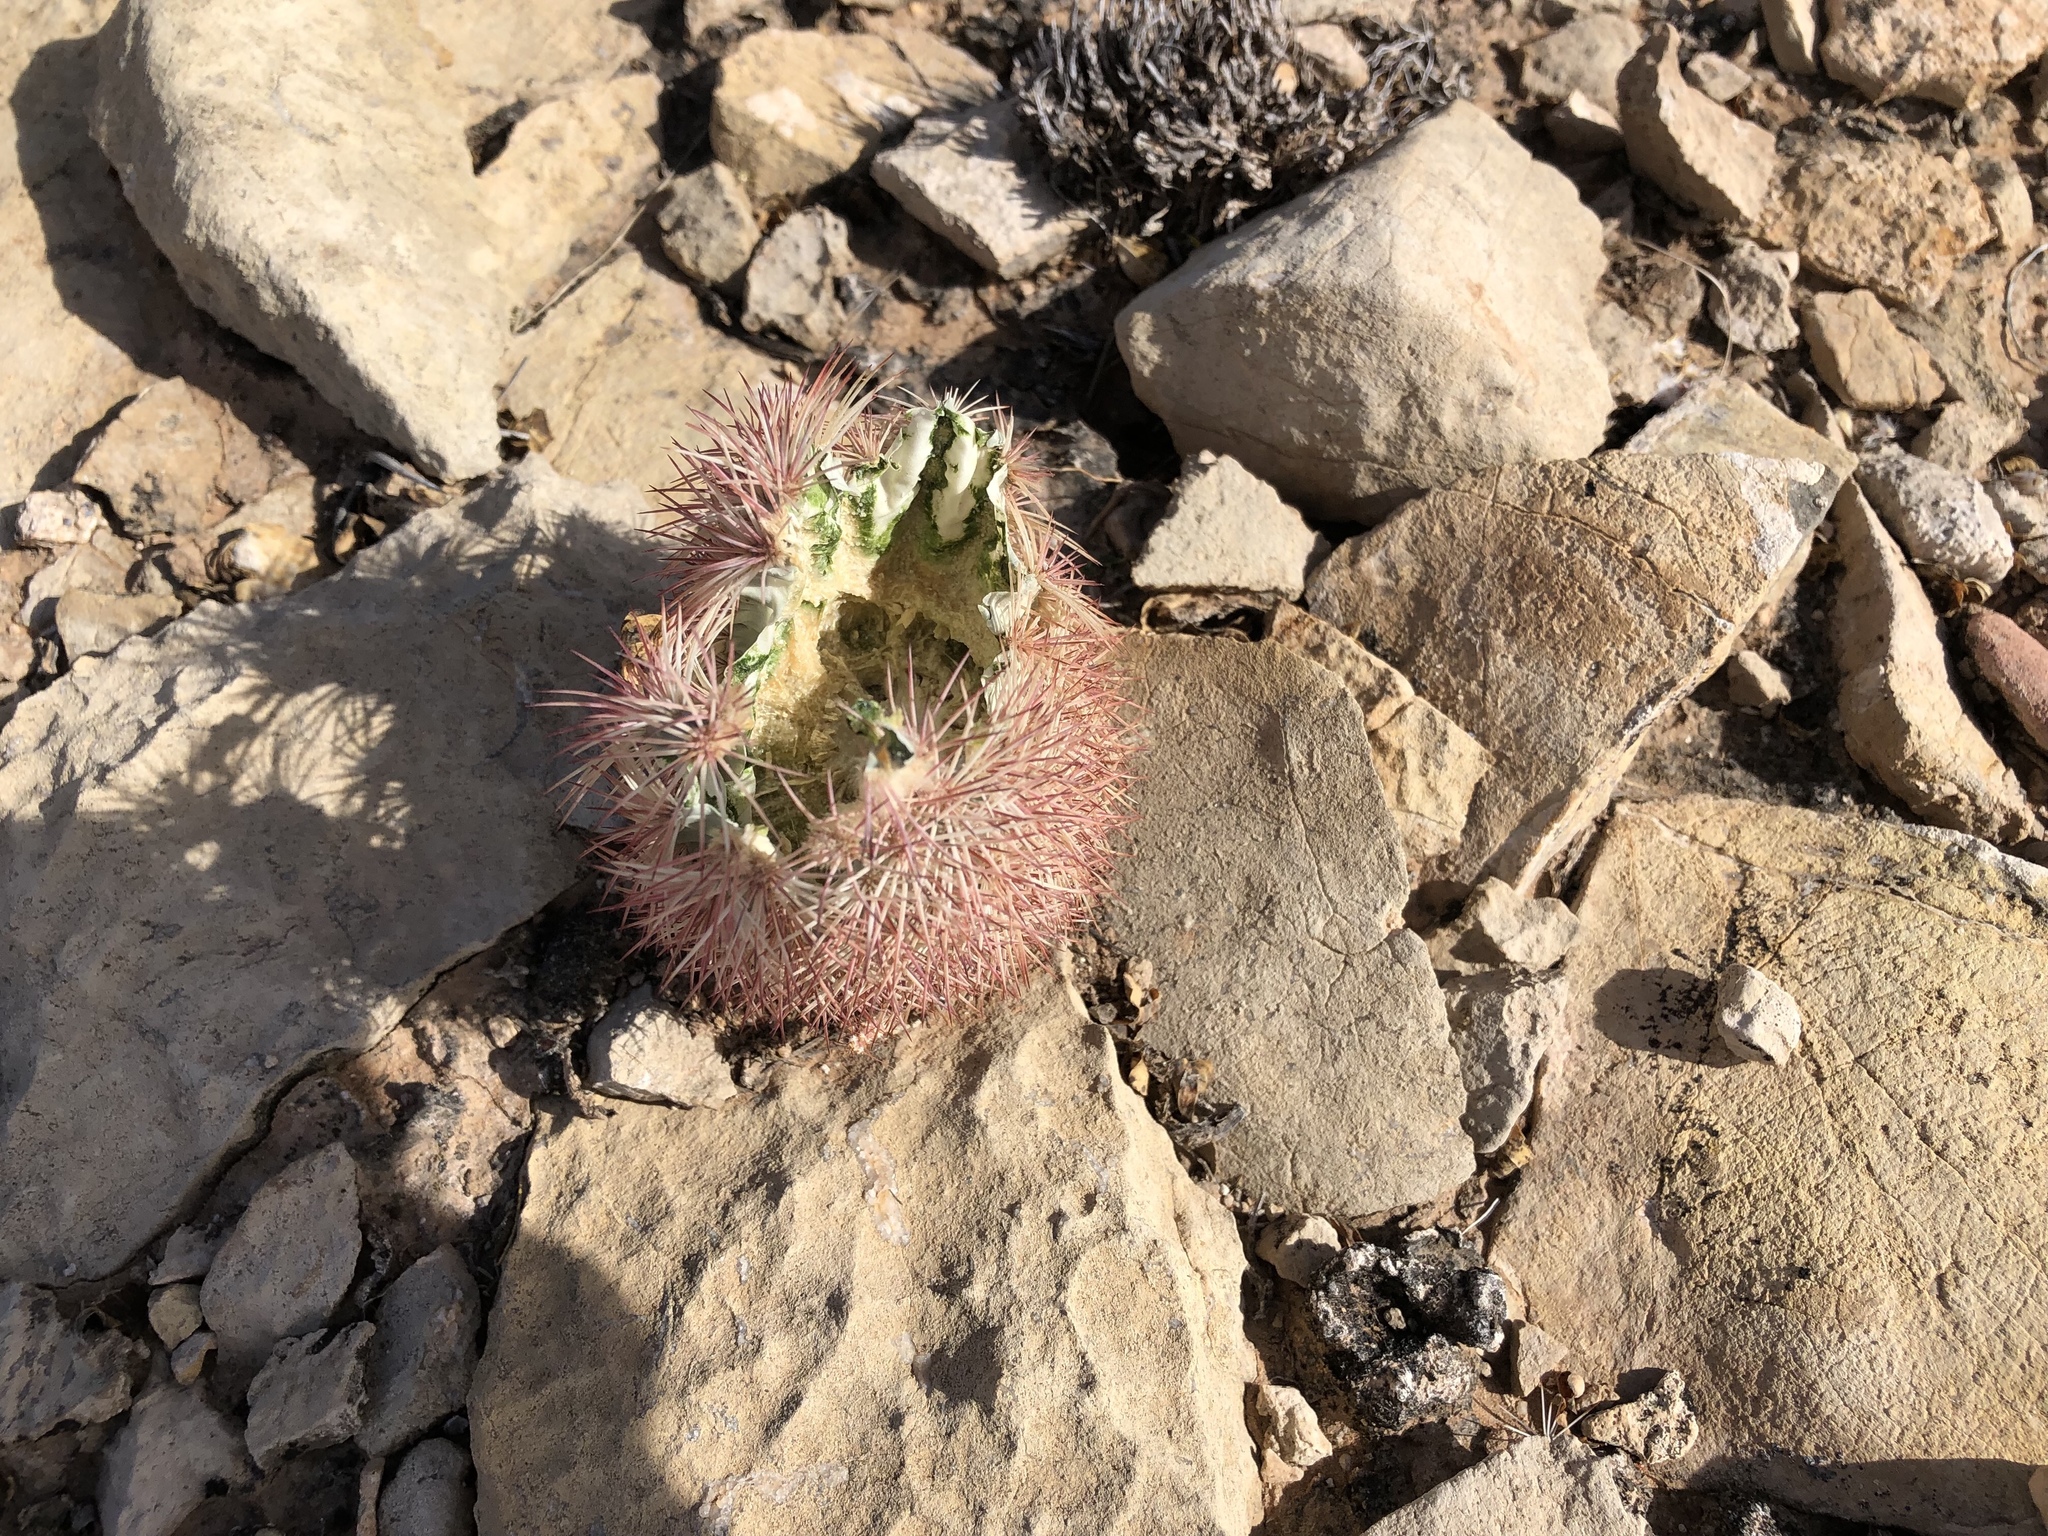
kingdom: Plantae
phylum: Tracheophyta
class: Magnoliopsida
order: Caryophyllales
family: Cactaceae
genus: Echinocereus
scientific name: Echinocereus dasyacanthus
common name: Spiny hedgehog cactus
